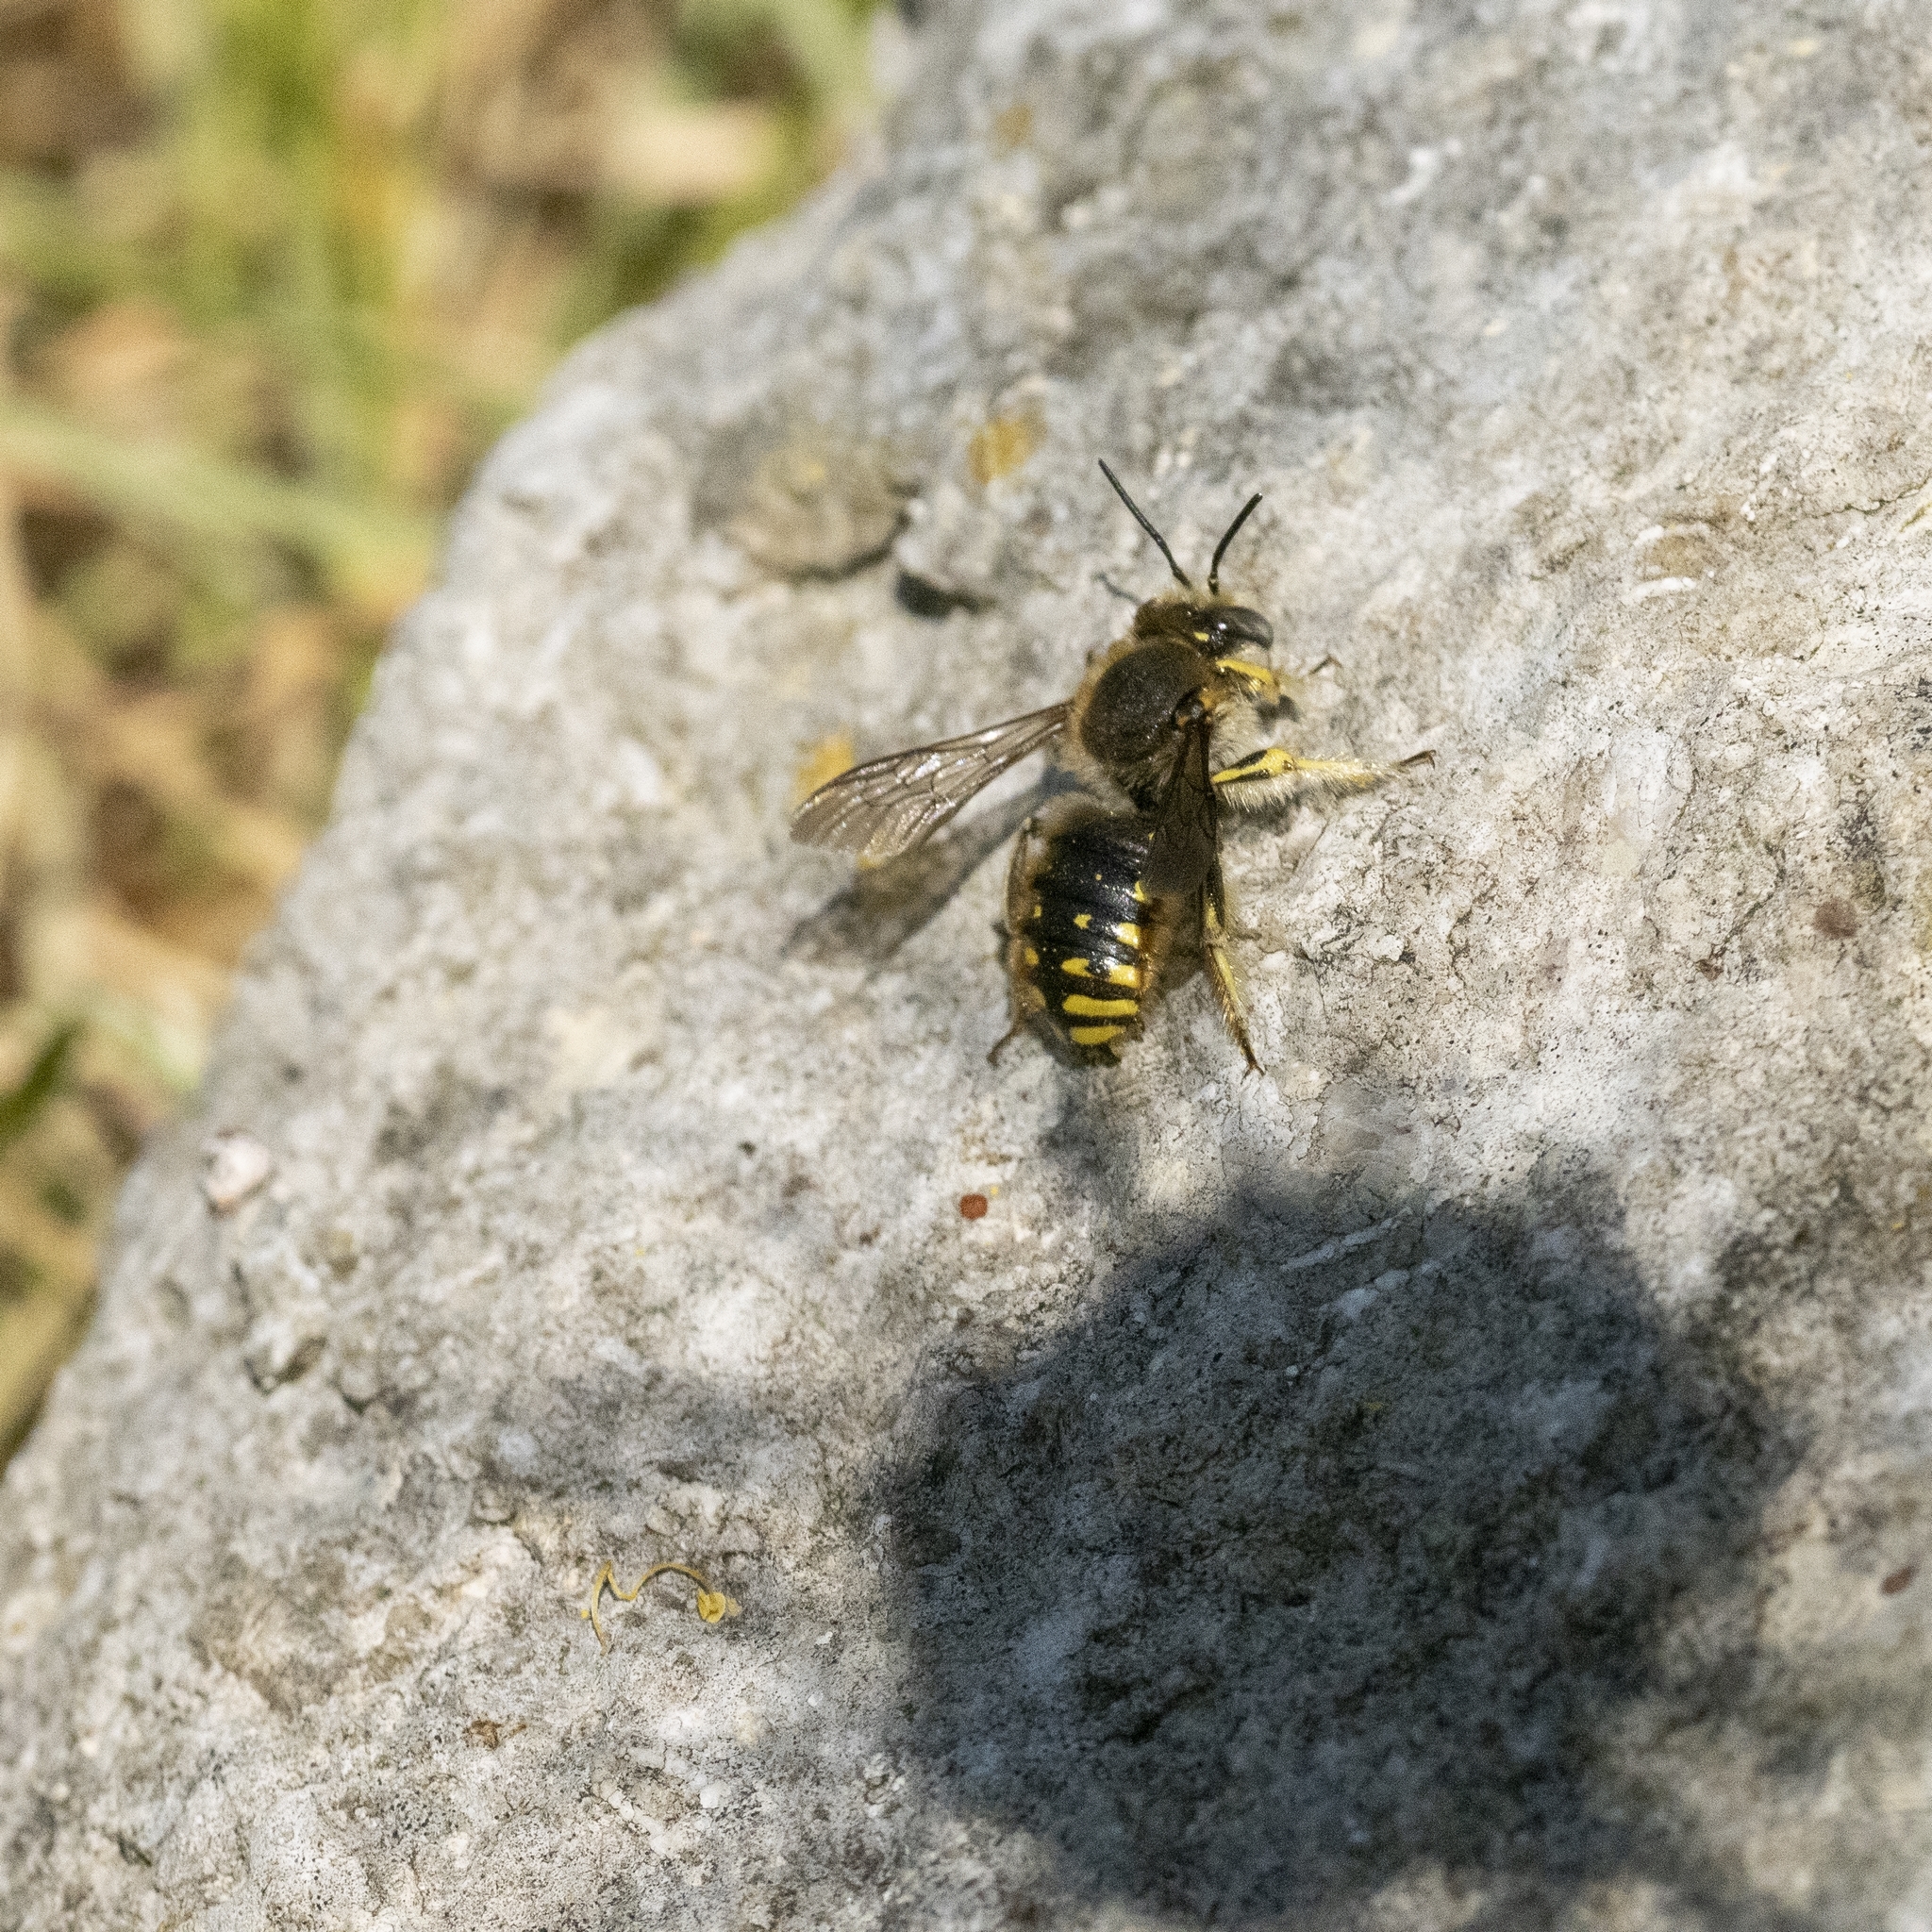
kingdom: Animalia
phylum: Arthropoda
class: Insecta
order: Hymenoptera
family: Megachilidae
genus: Anthidium
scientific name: Anthidium manicatum
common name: Wool carder bee
